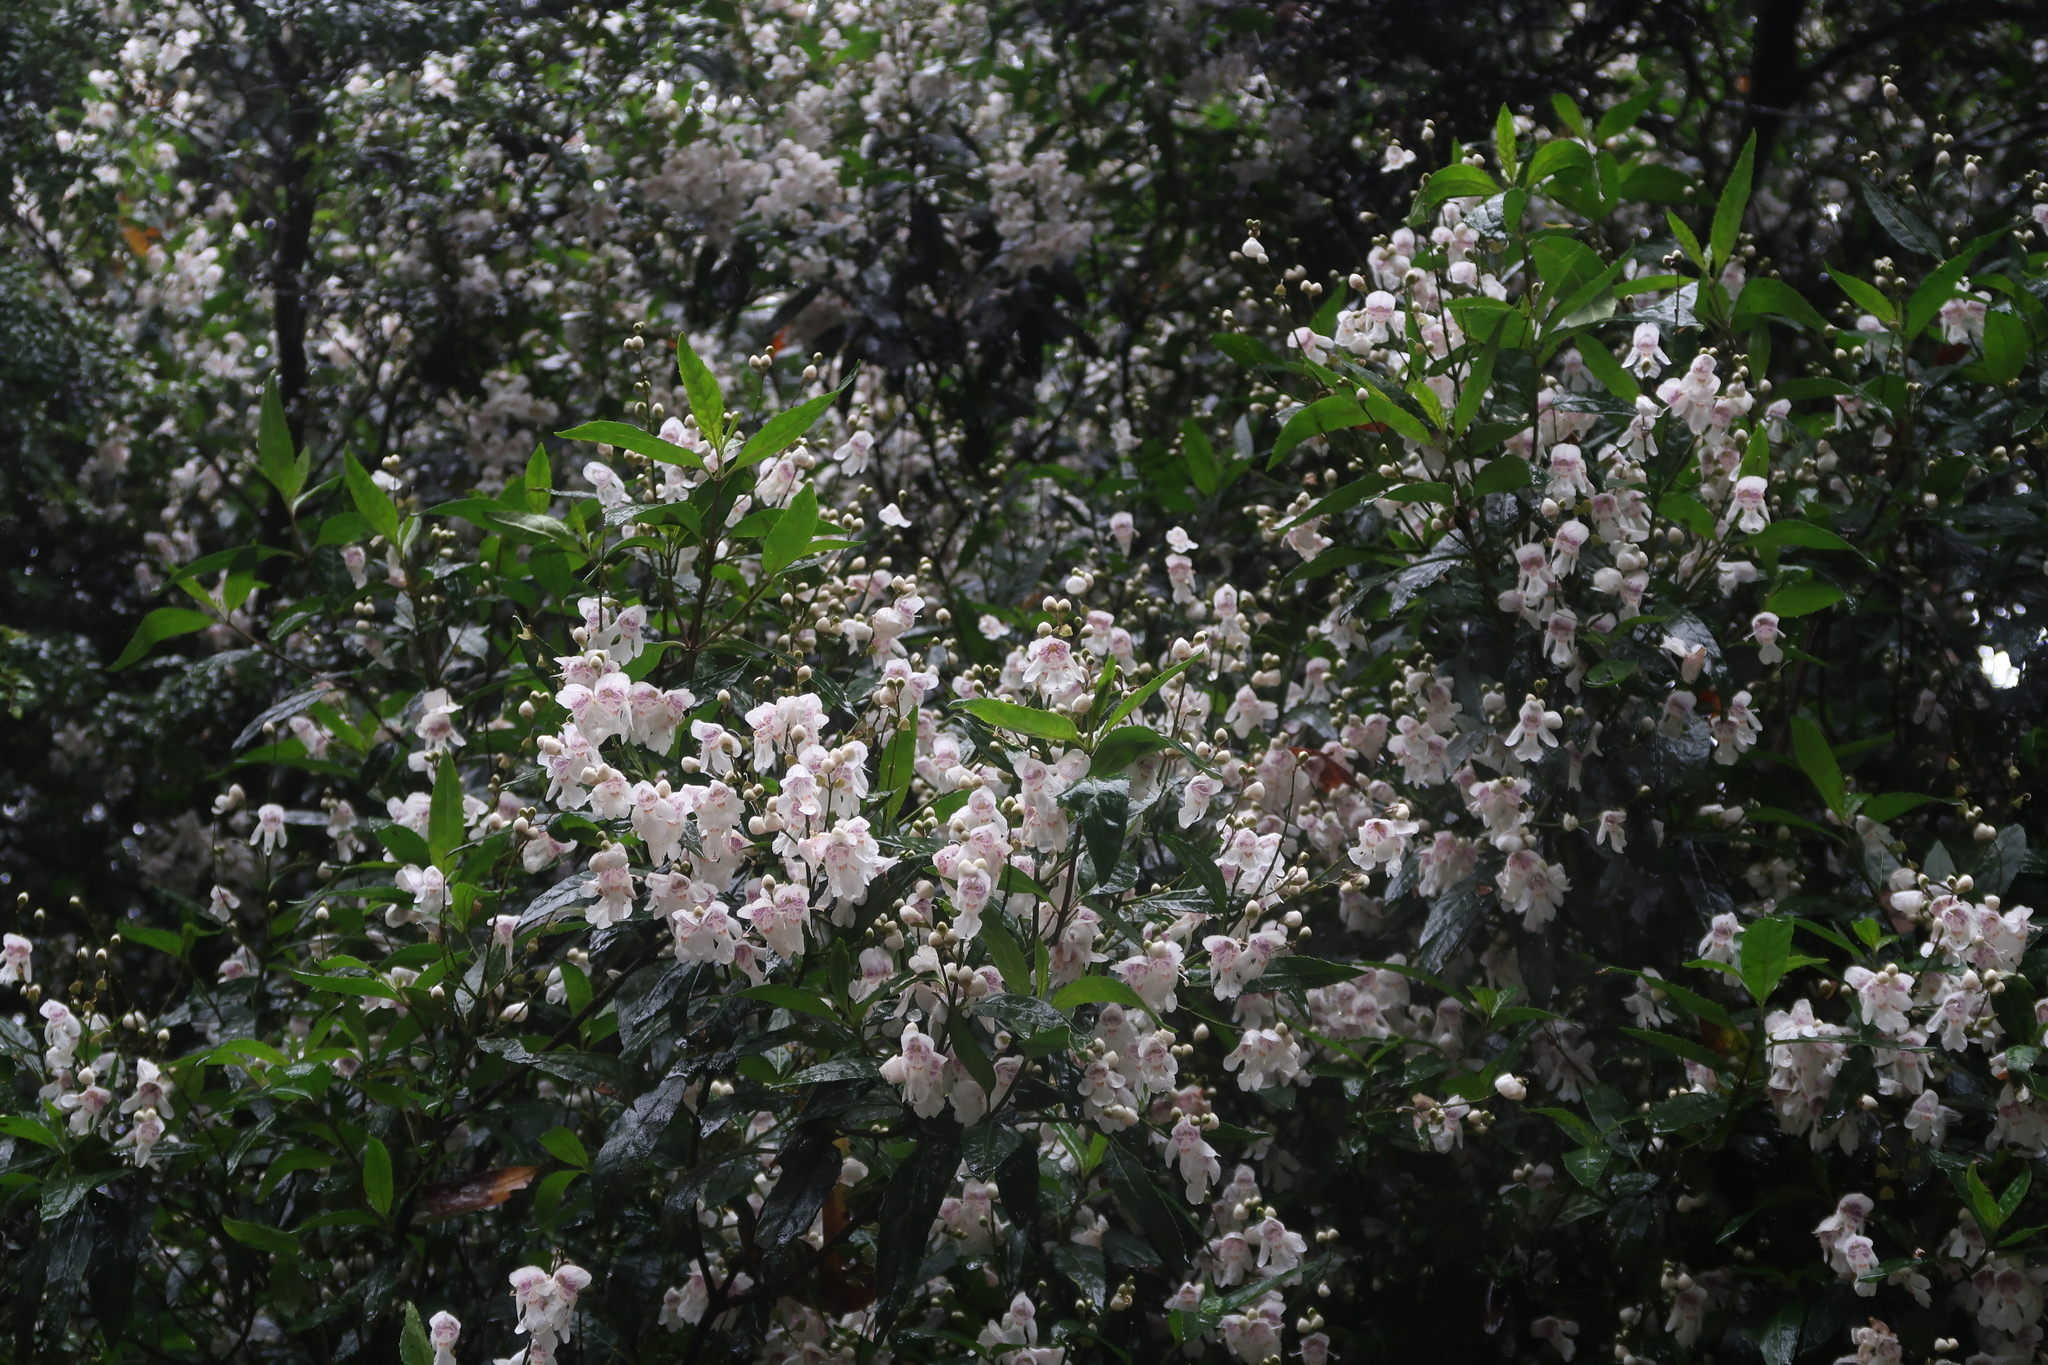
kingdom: Plantae
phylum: Tracheophyta
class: Magnoliopsida
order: Lamiales
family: Lamiaceae
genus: Prostanthera
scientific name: Prostanthera lasianthos
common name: Mountain-lilac
